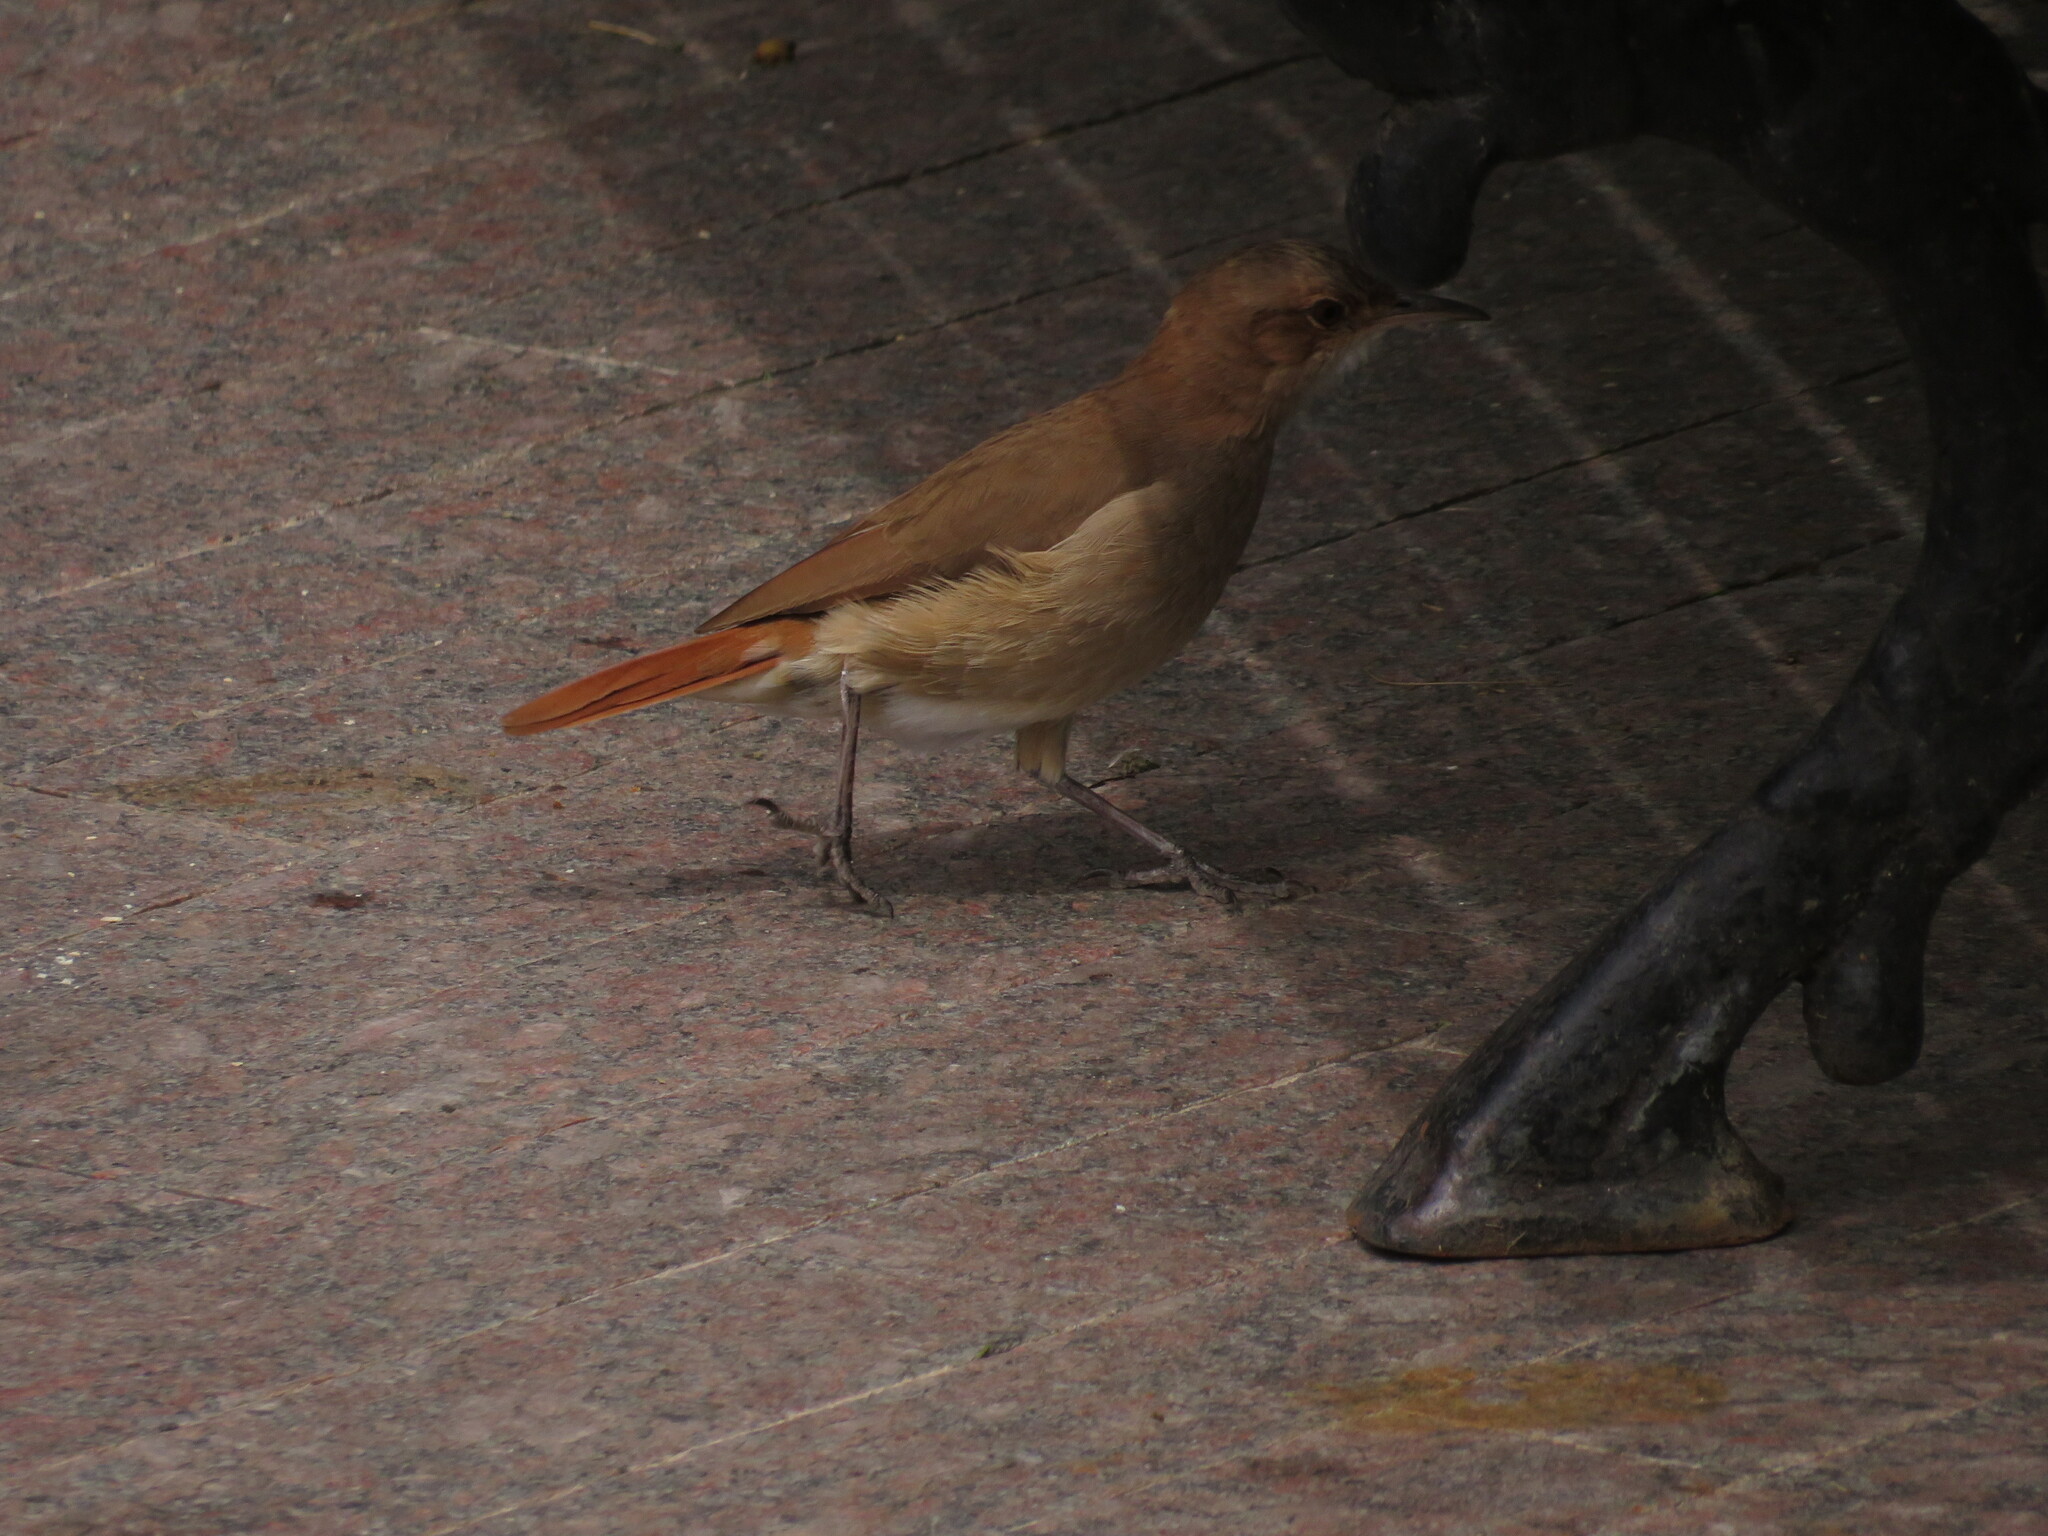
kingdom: Animalia
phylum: Chordata
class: Aves
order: Passeriformes
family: Furnariidae
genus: Furnarius
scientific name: Furnarius rufus
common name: Rufous hornero
